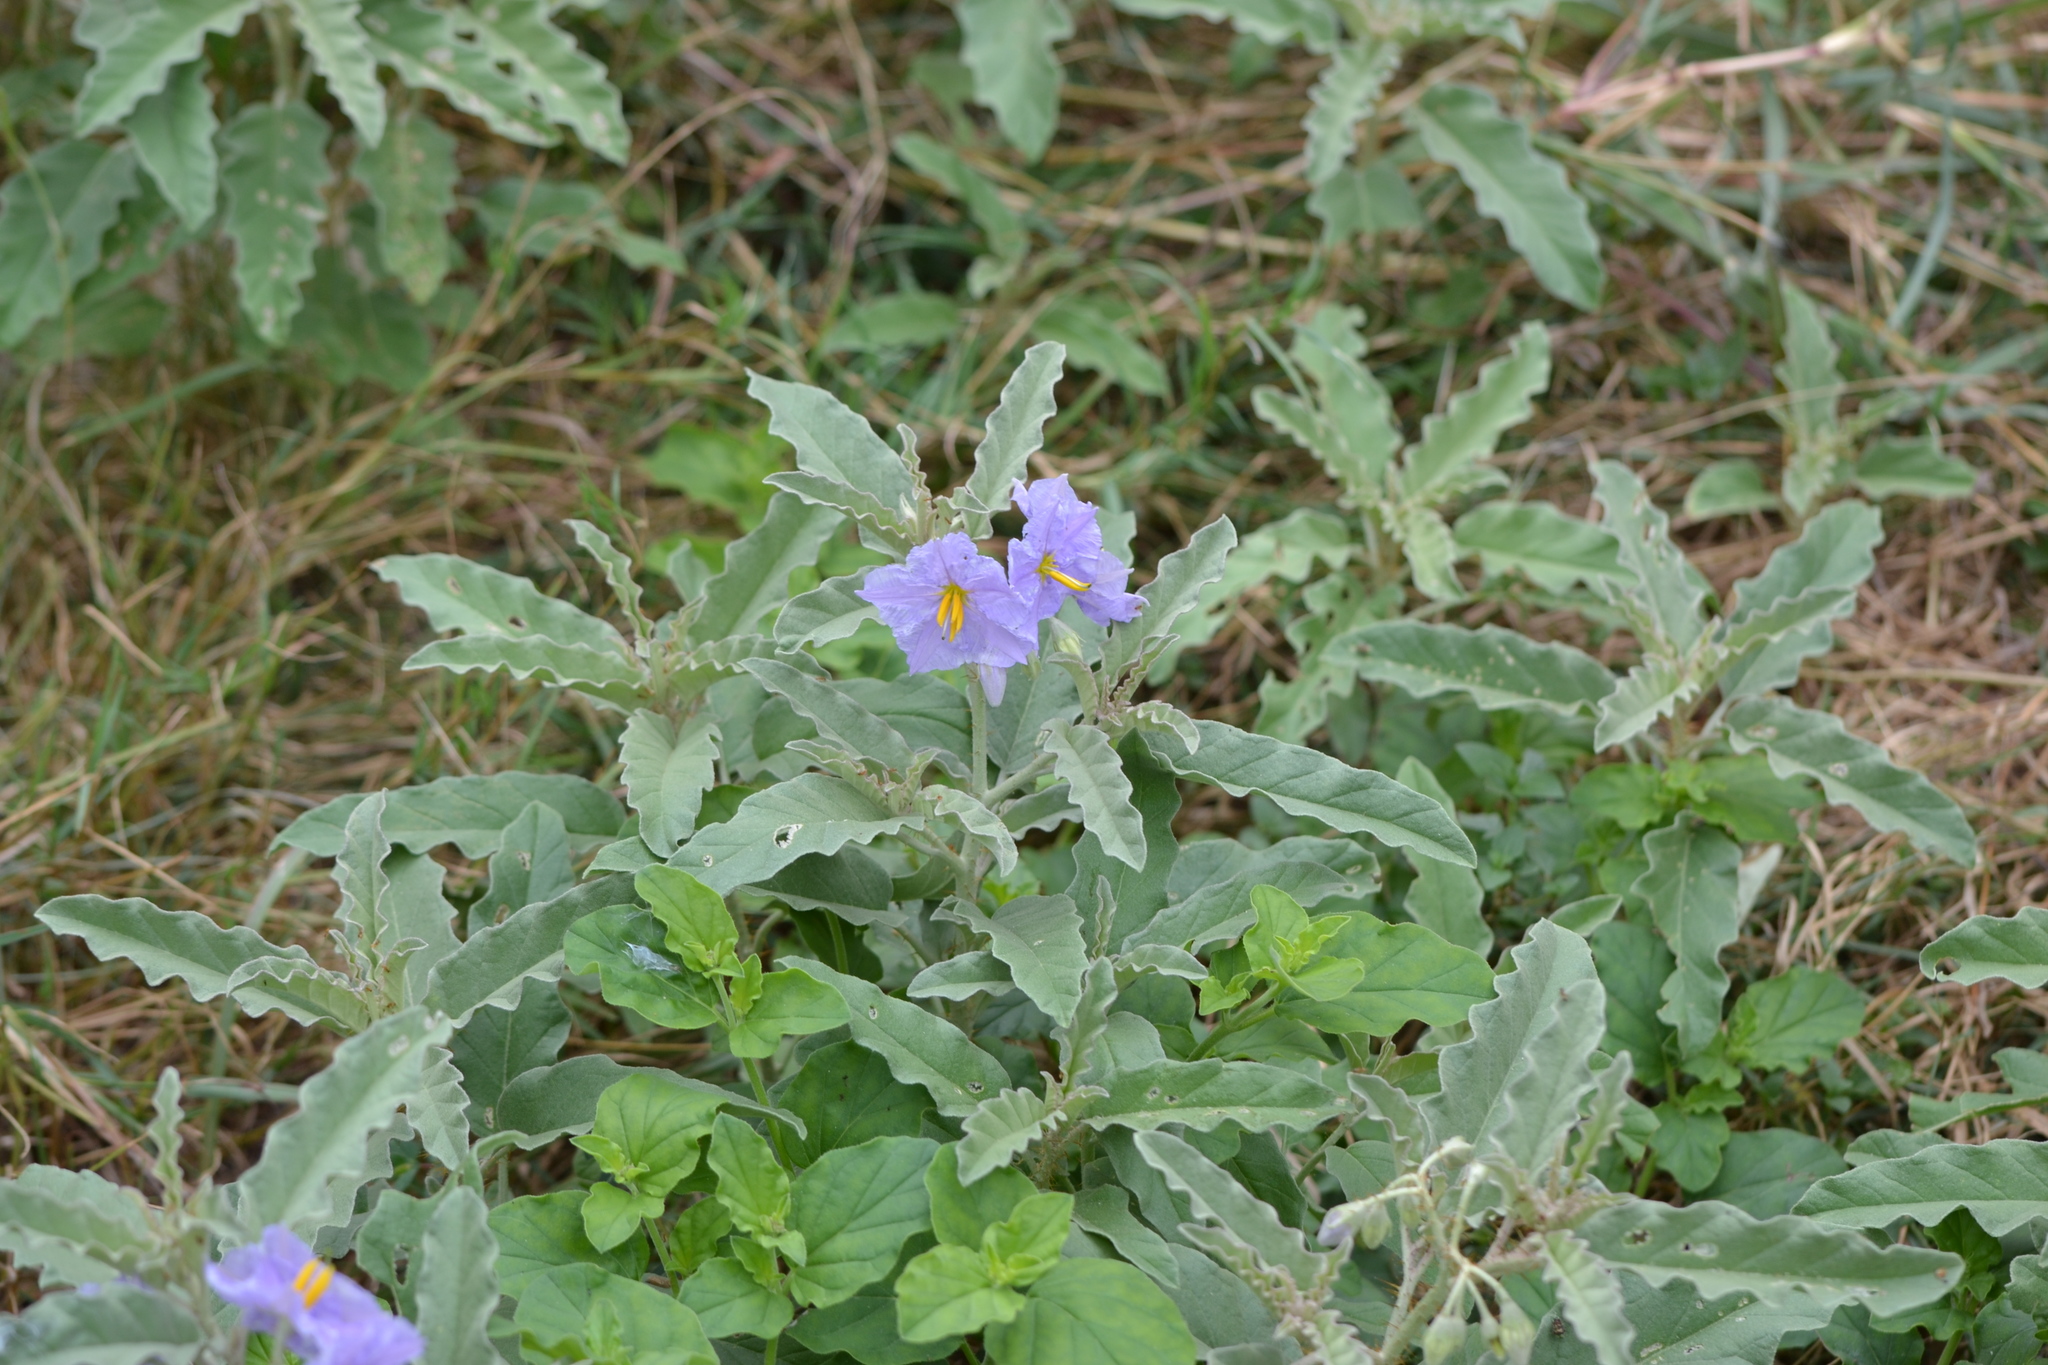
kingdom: Plantae
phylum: Tracheophyta
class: Magnoliopsida
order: Solanales
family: Solanaceae
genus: Solanum
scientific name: Solanum elaeagnifolium
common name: Silverleaf nightshade
